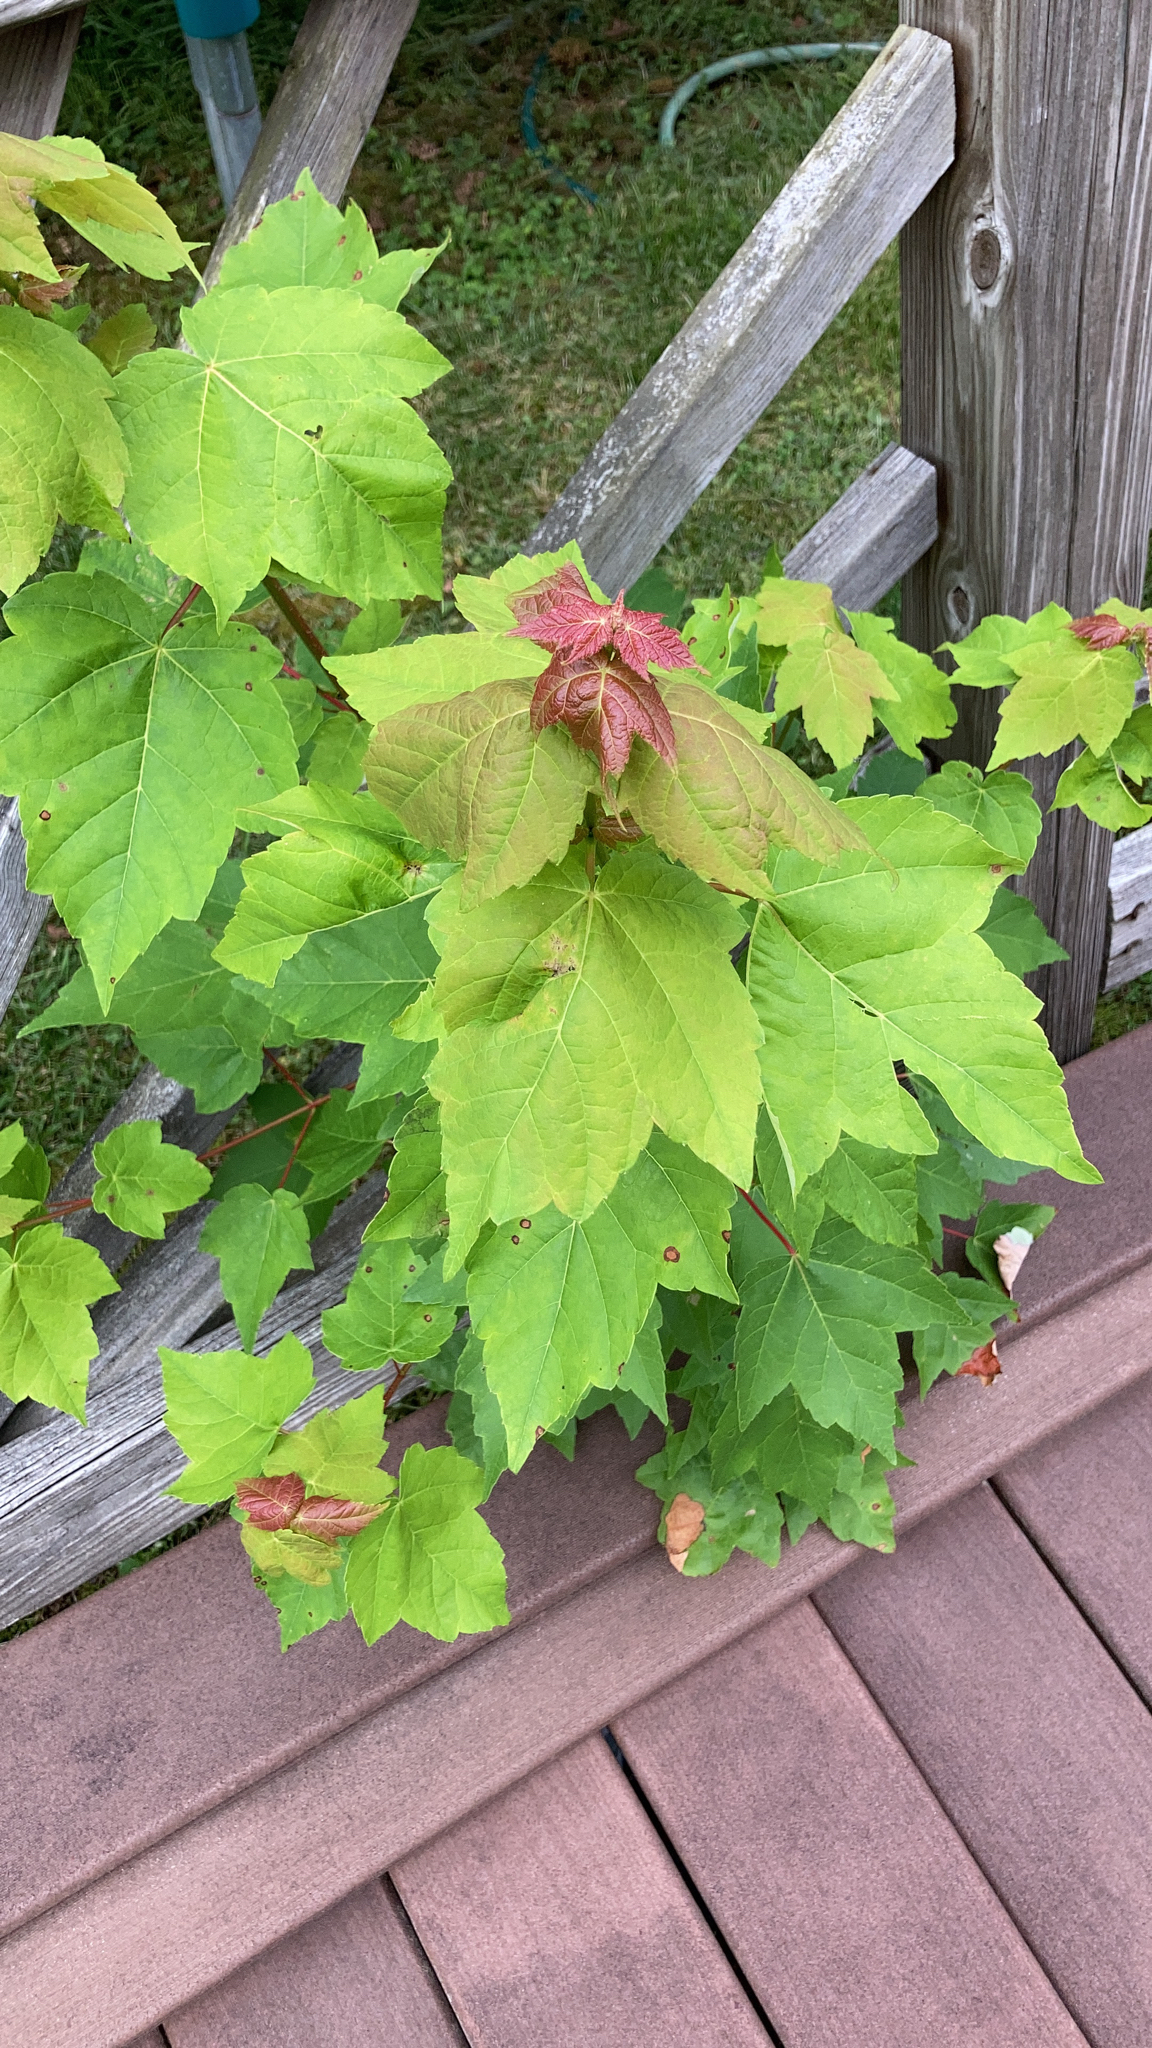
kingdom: Plantae
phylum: Tracheophyta
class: Magnoliopsida
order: Sapindales
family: Sapindaceae
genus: Acer
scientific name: Acer rubrum
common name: Red maple
